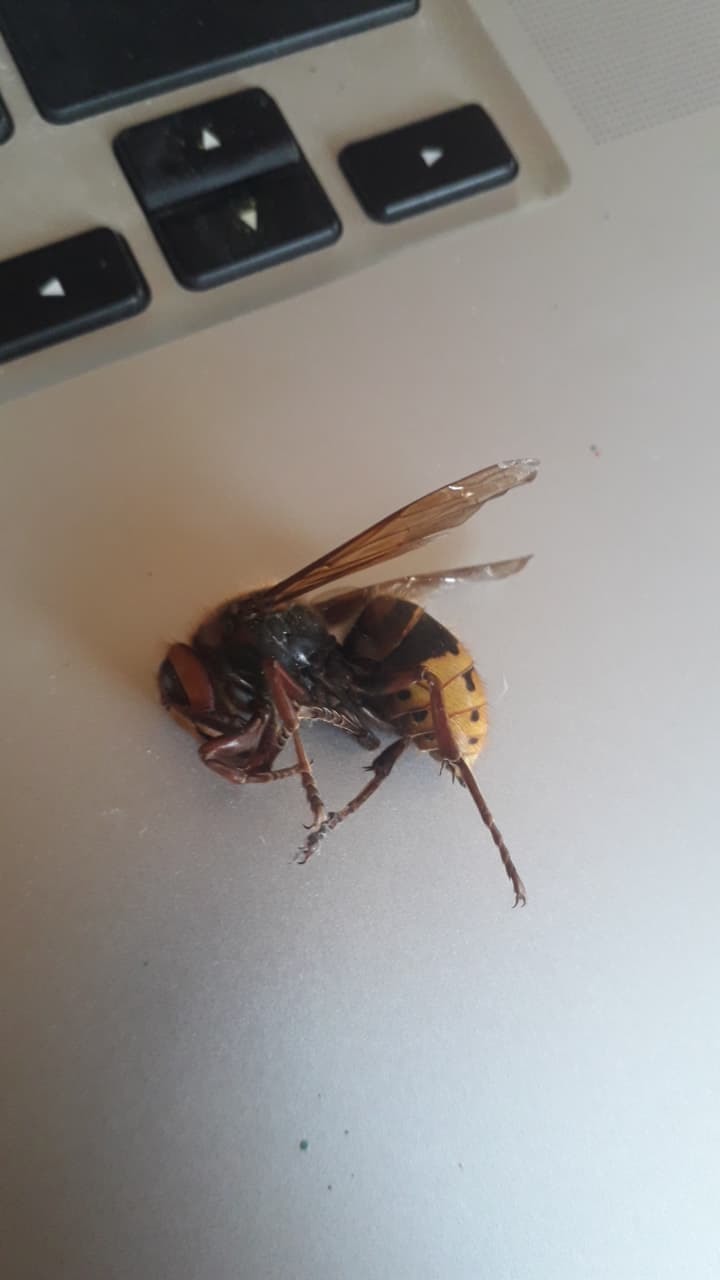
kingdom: Animalia
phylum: Arthropoda
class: Insecta
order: Hymenoptera
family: Vespidae
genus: Vespa
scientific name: Vespa crabro
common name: Hornet
